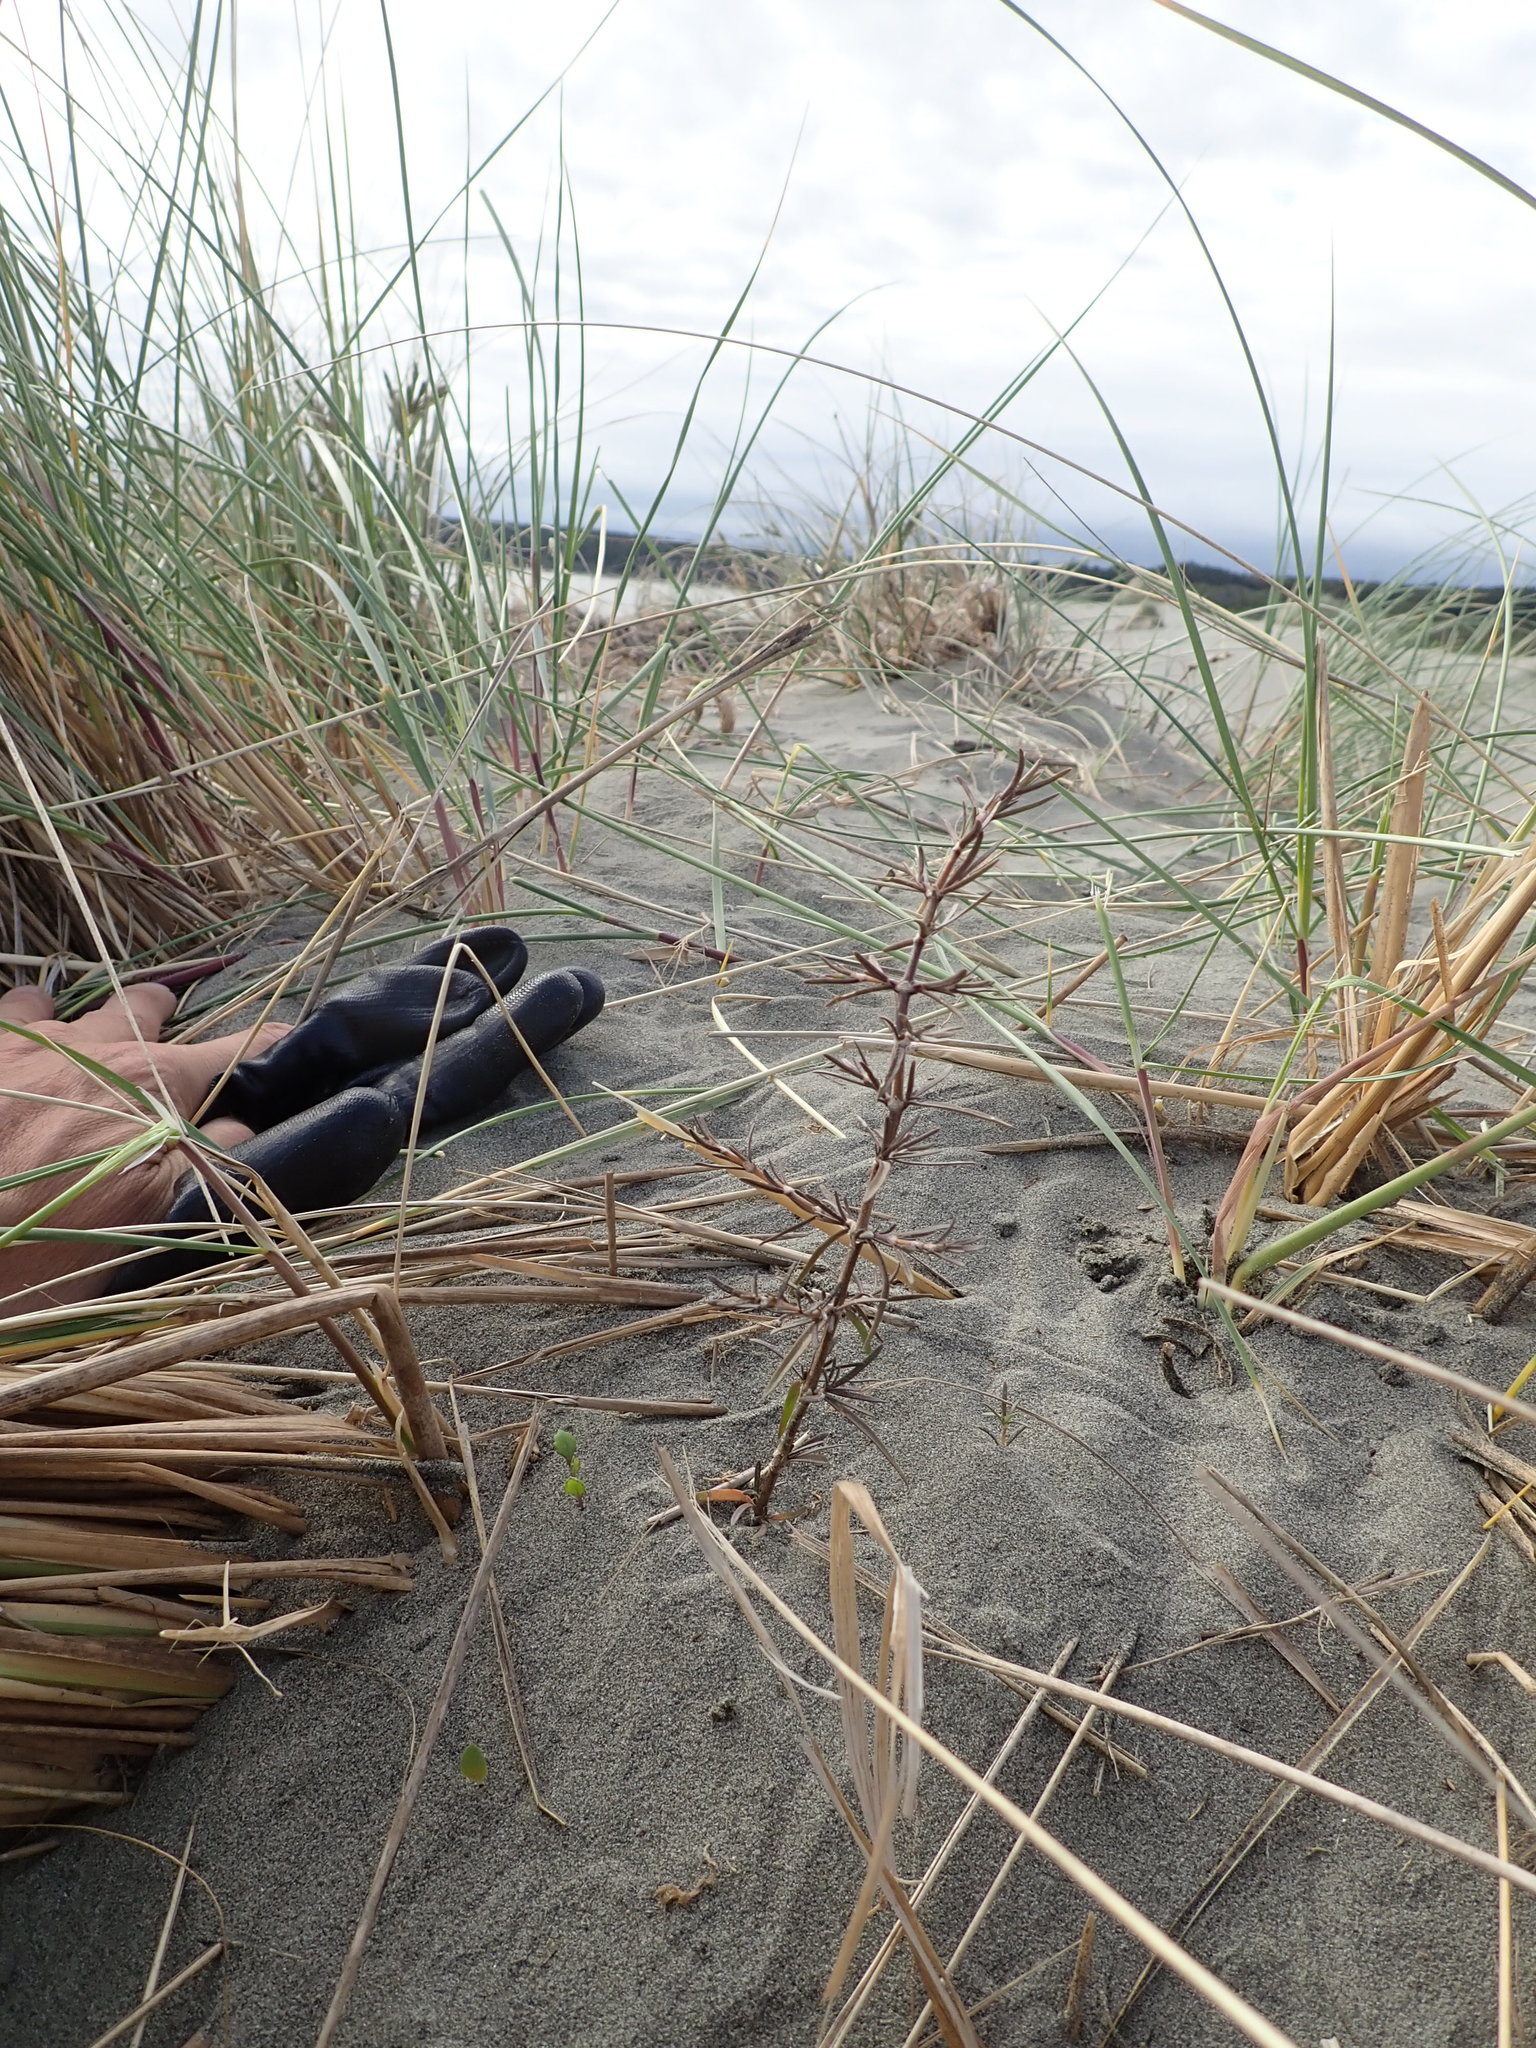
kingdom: Plantae
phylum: Tracheophyta
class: Magnoliopsida
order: Gentianales
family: Rubiaceae
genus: Coprosma
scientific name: Coprosma acerosa
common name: Sand coprosma
